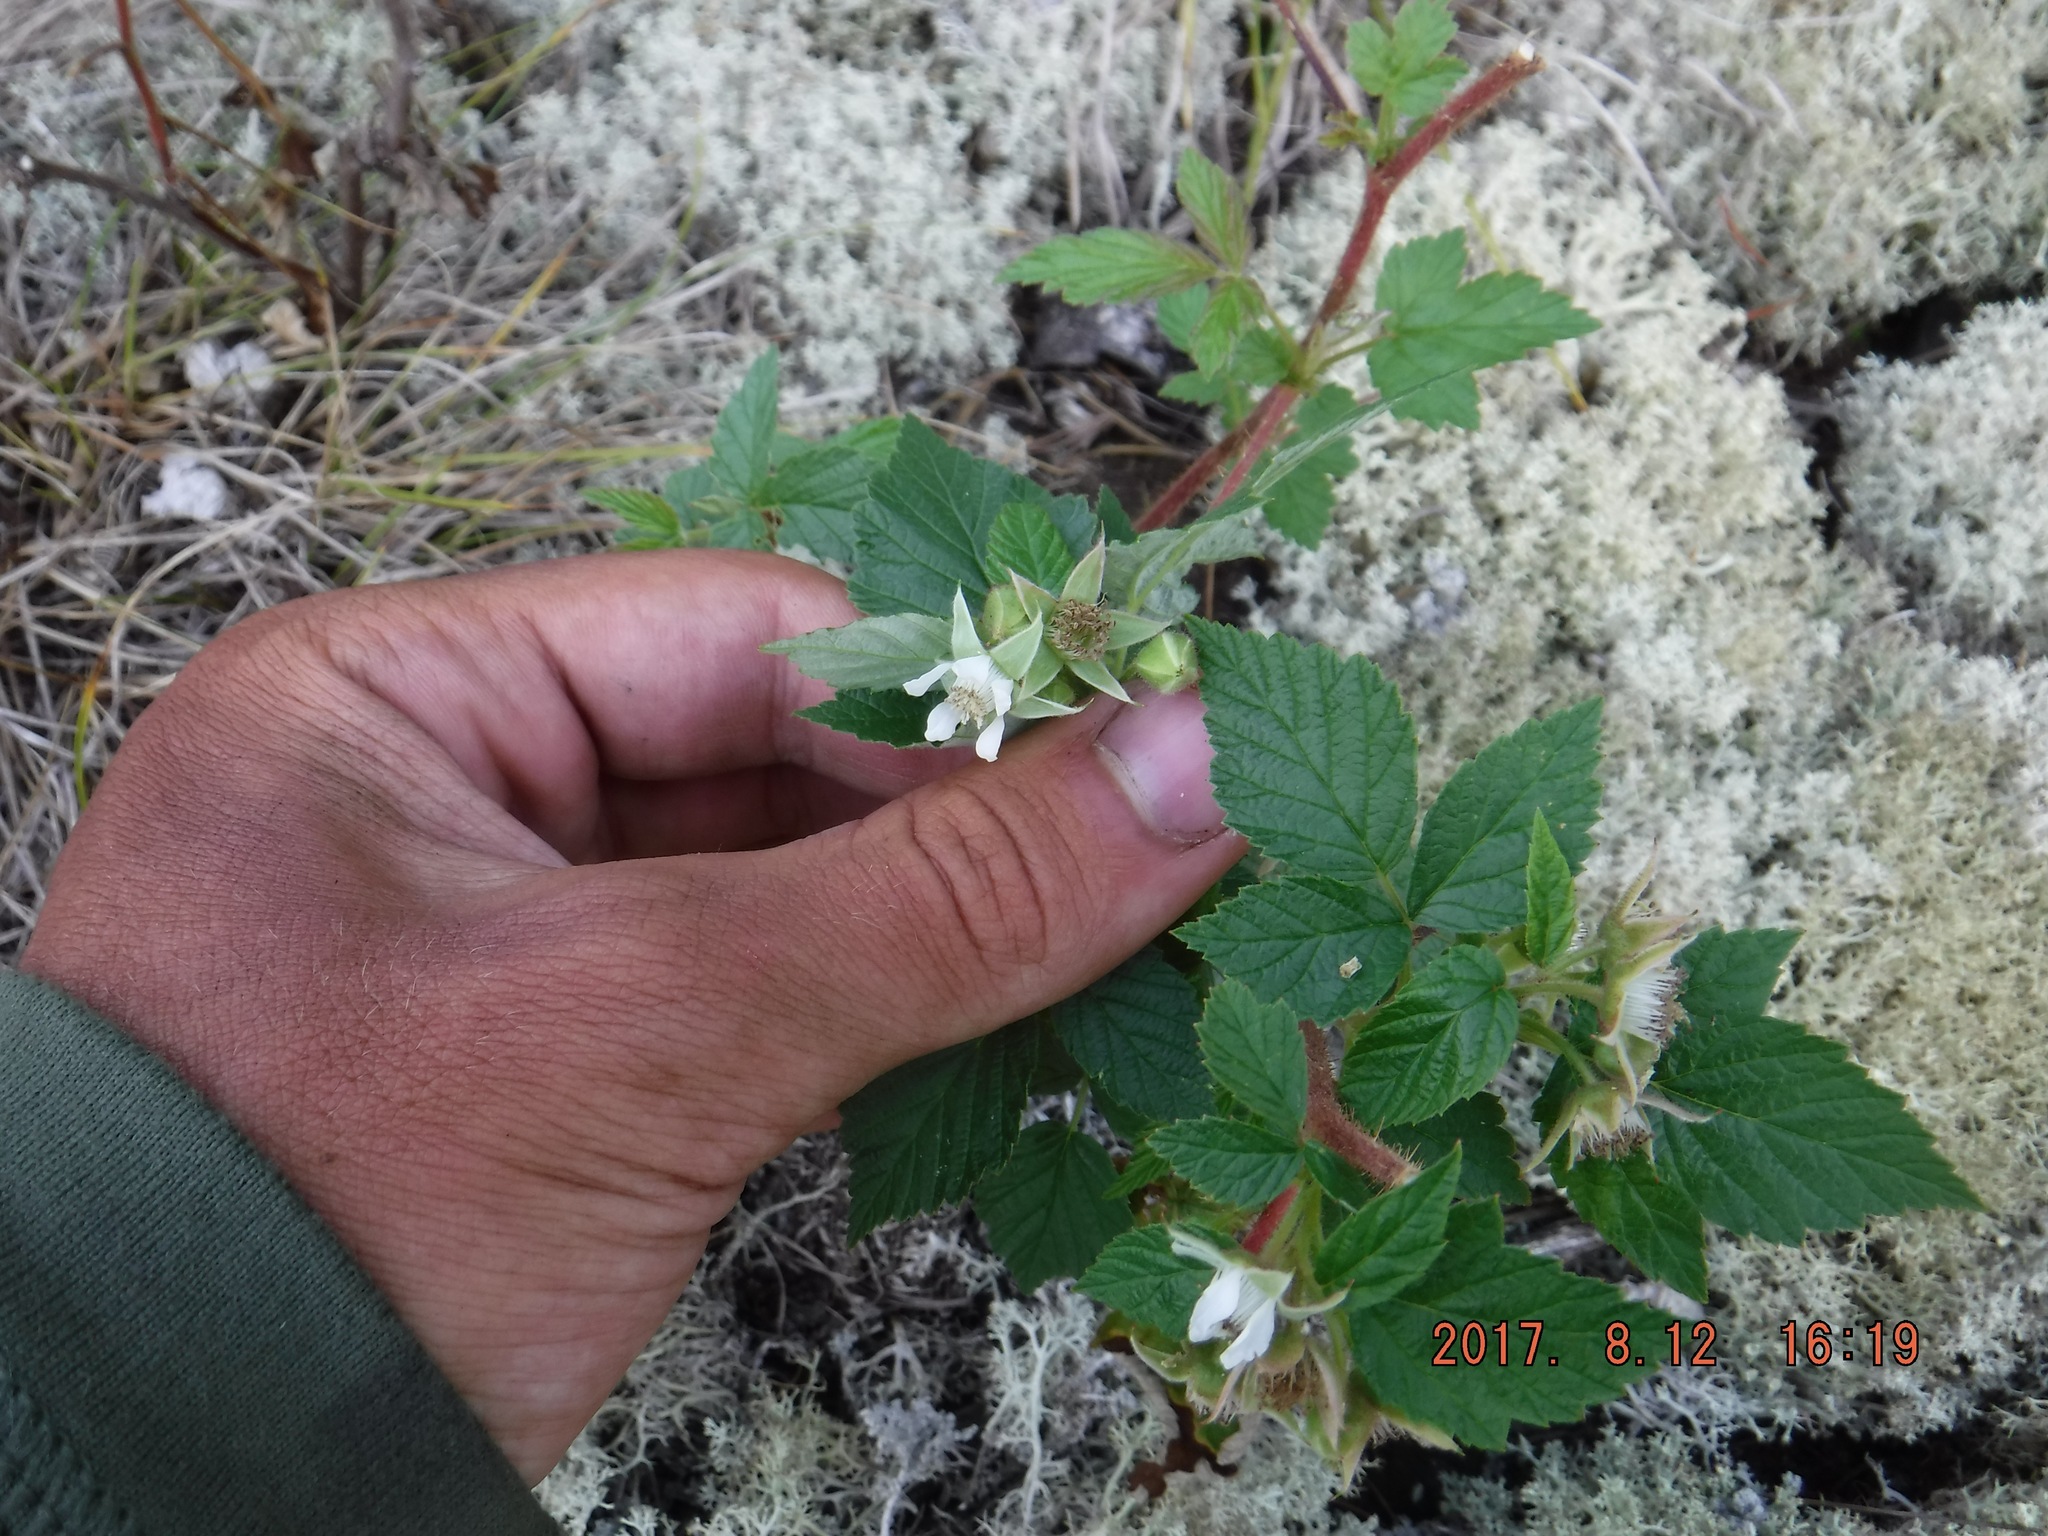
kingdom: Plantae
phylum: Tracheophyta
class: Magnoliopsida
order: Rosales
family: Rosaceae
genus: Rubus
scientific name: Rubus idaeus
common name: Raspberry
